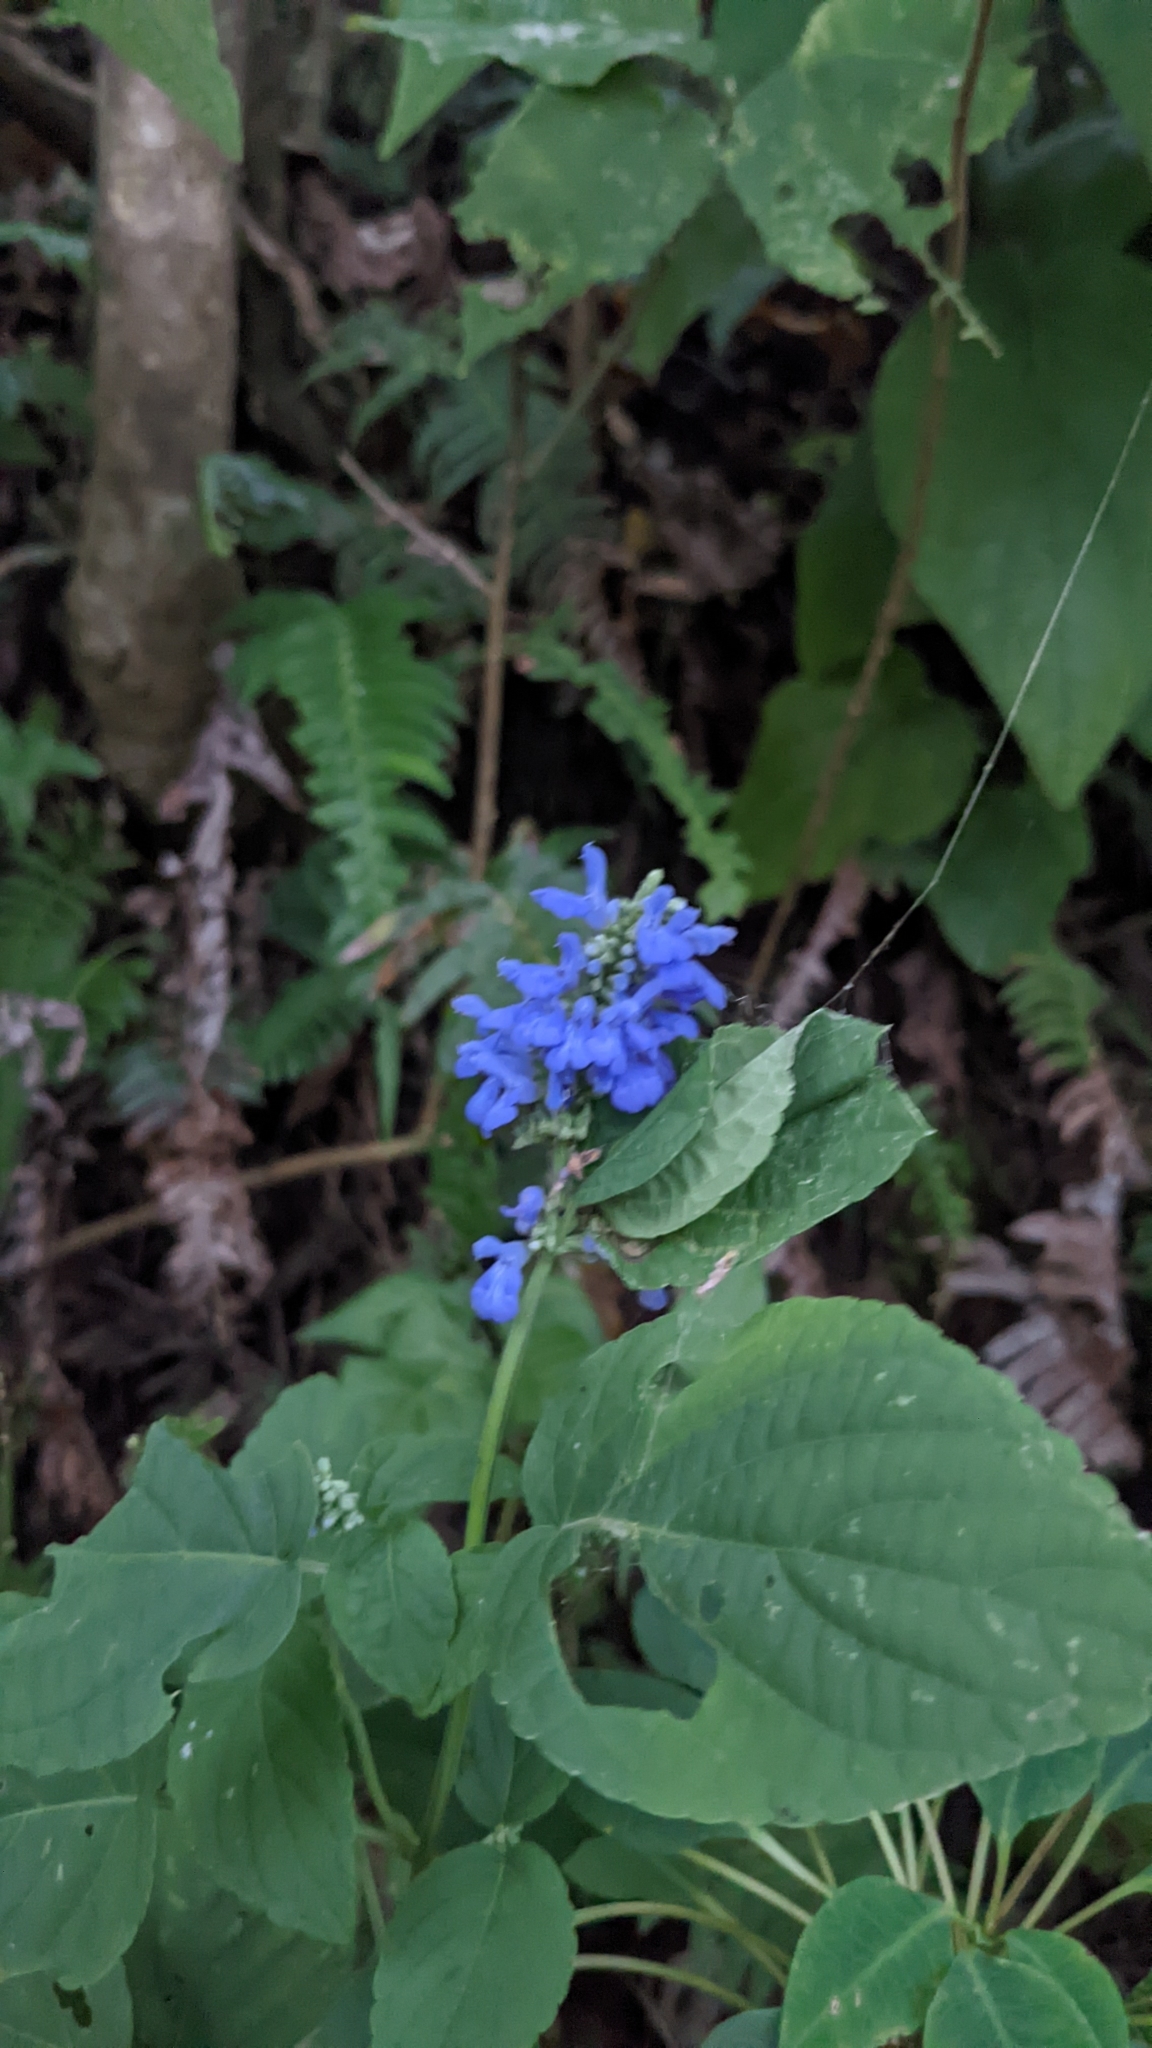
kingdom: Plantae
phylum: Tracheophyta
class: Magnoliopsida
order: Lamiales
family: Lamiaceae
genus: Salvia
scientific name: Salvia polystachia
